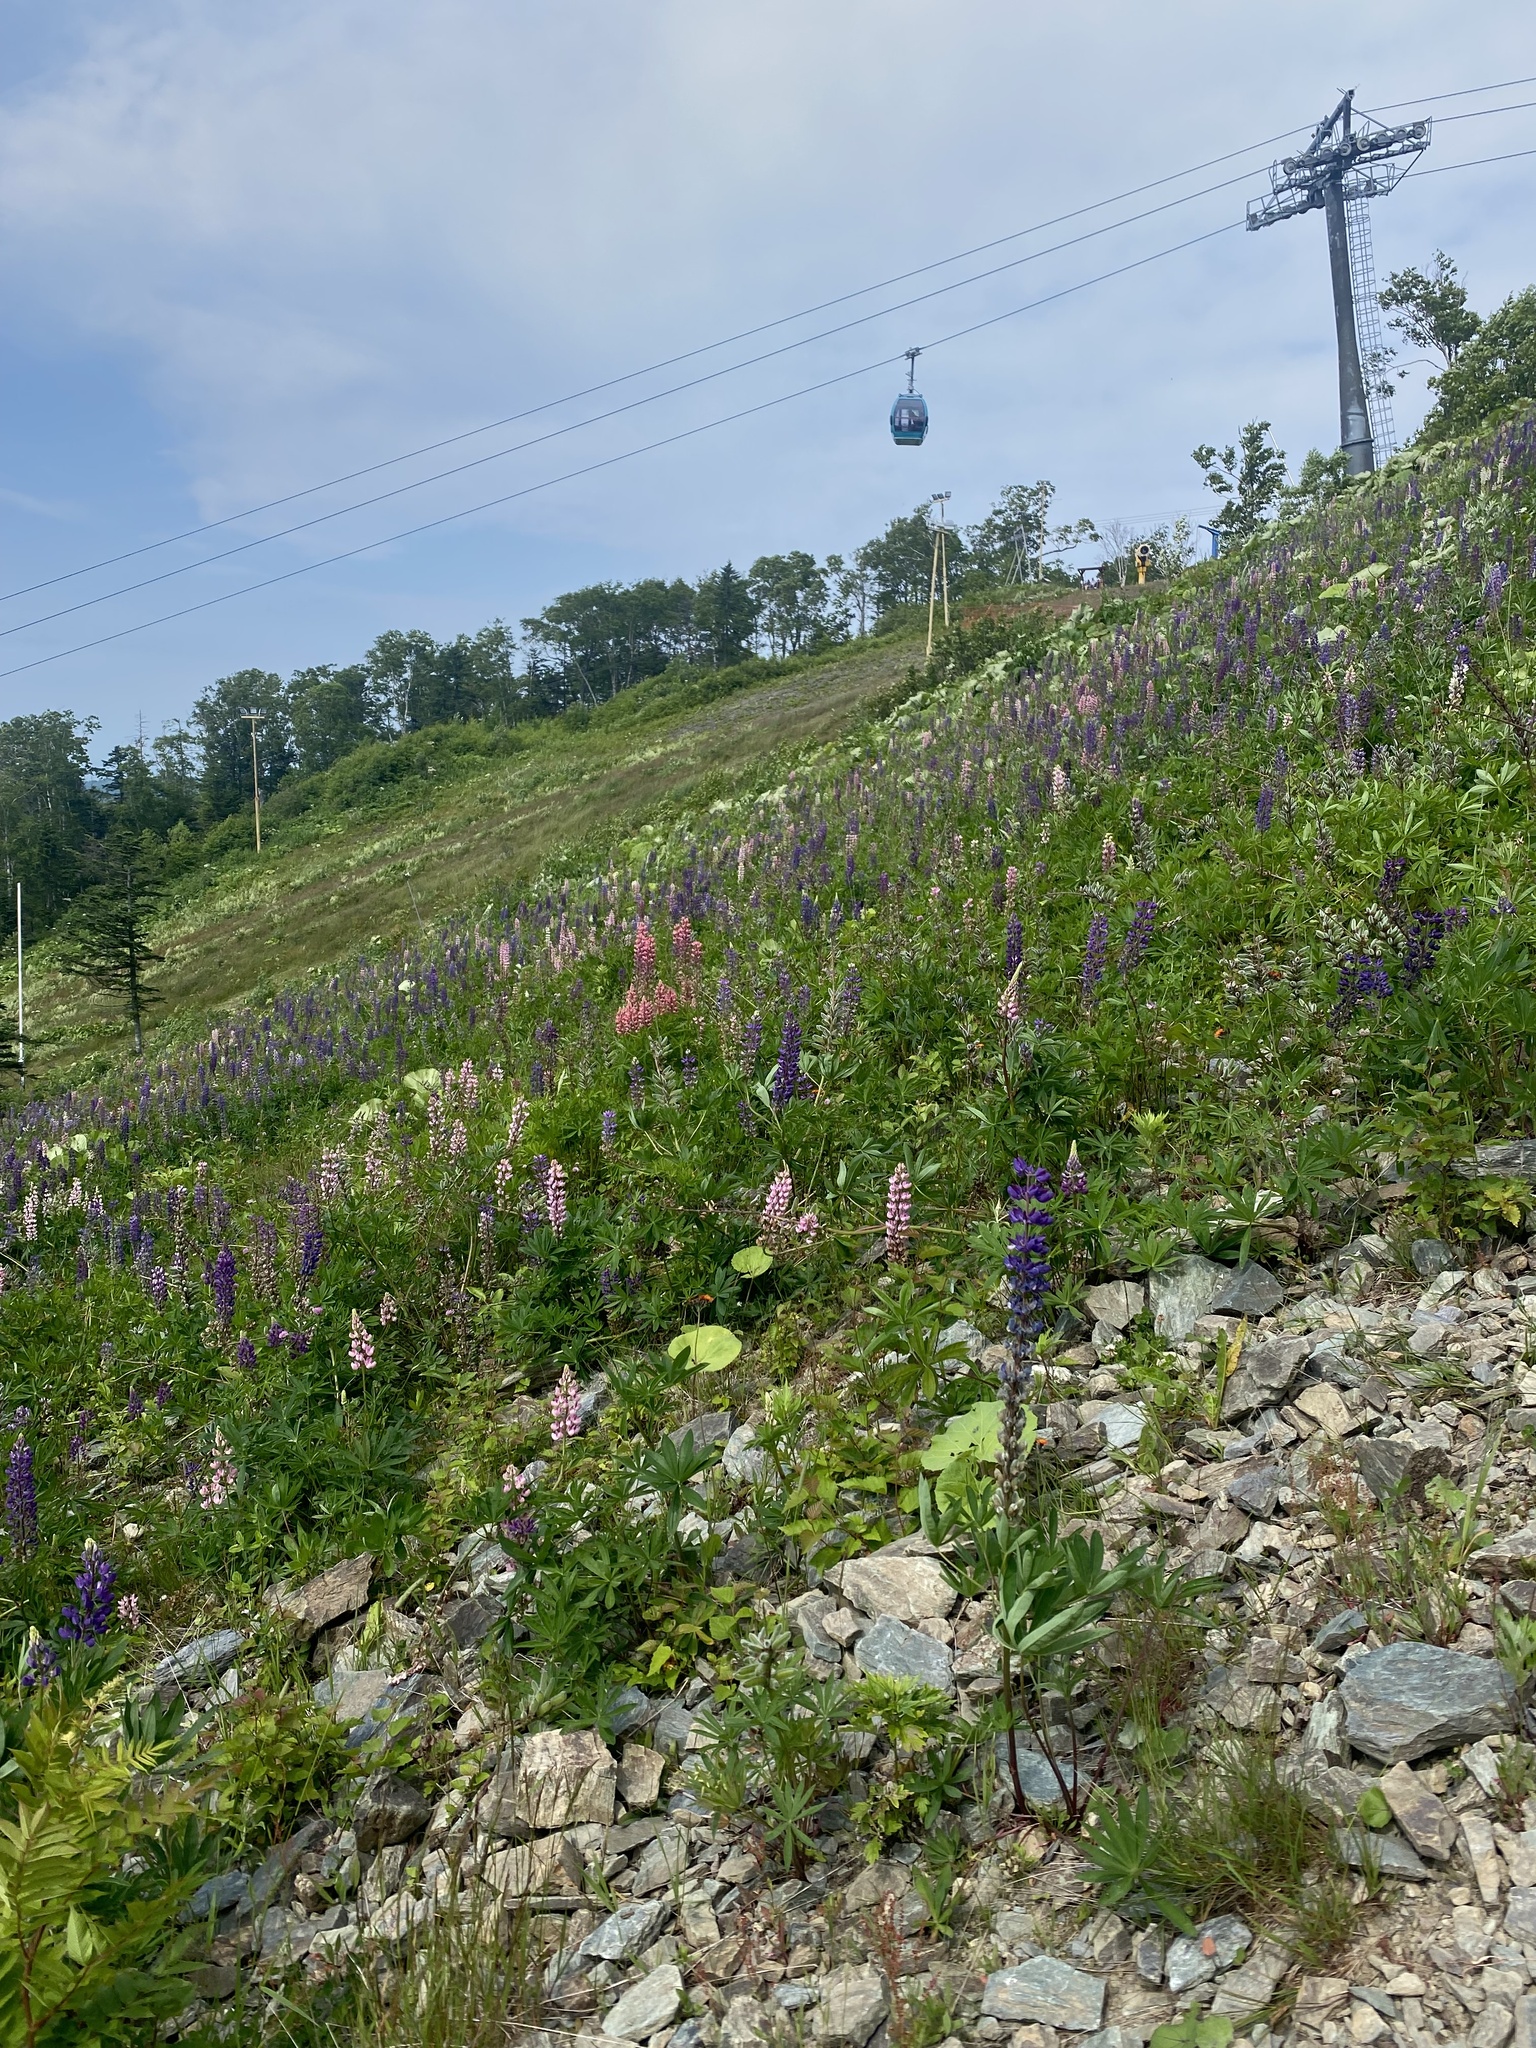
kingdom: Plantae
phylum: Tracheophyta
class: Magnoliopsida
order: Fabales
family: Fabaceae
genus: Lupinus
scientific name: Lupinus polyphyllus
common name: Garden lupin
